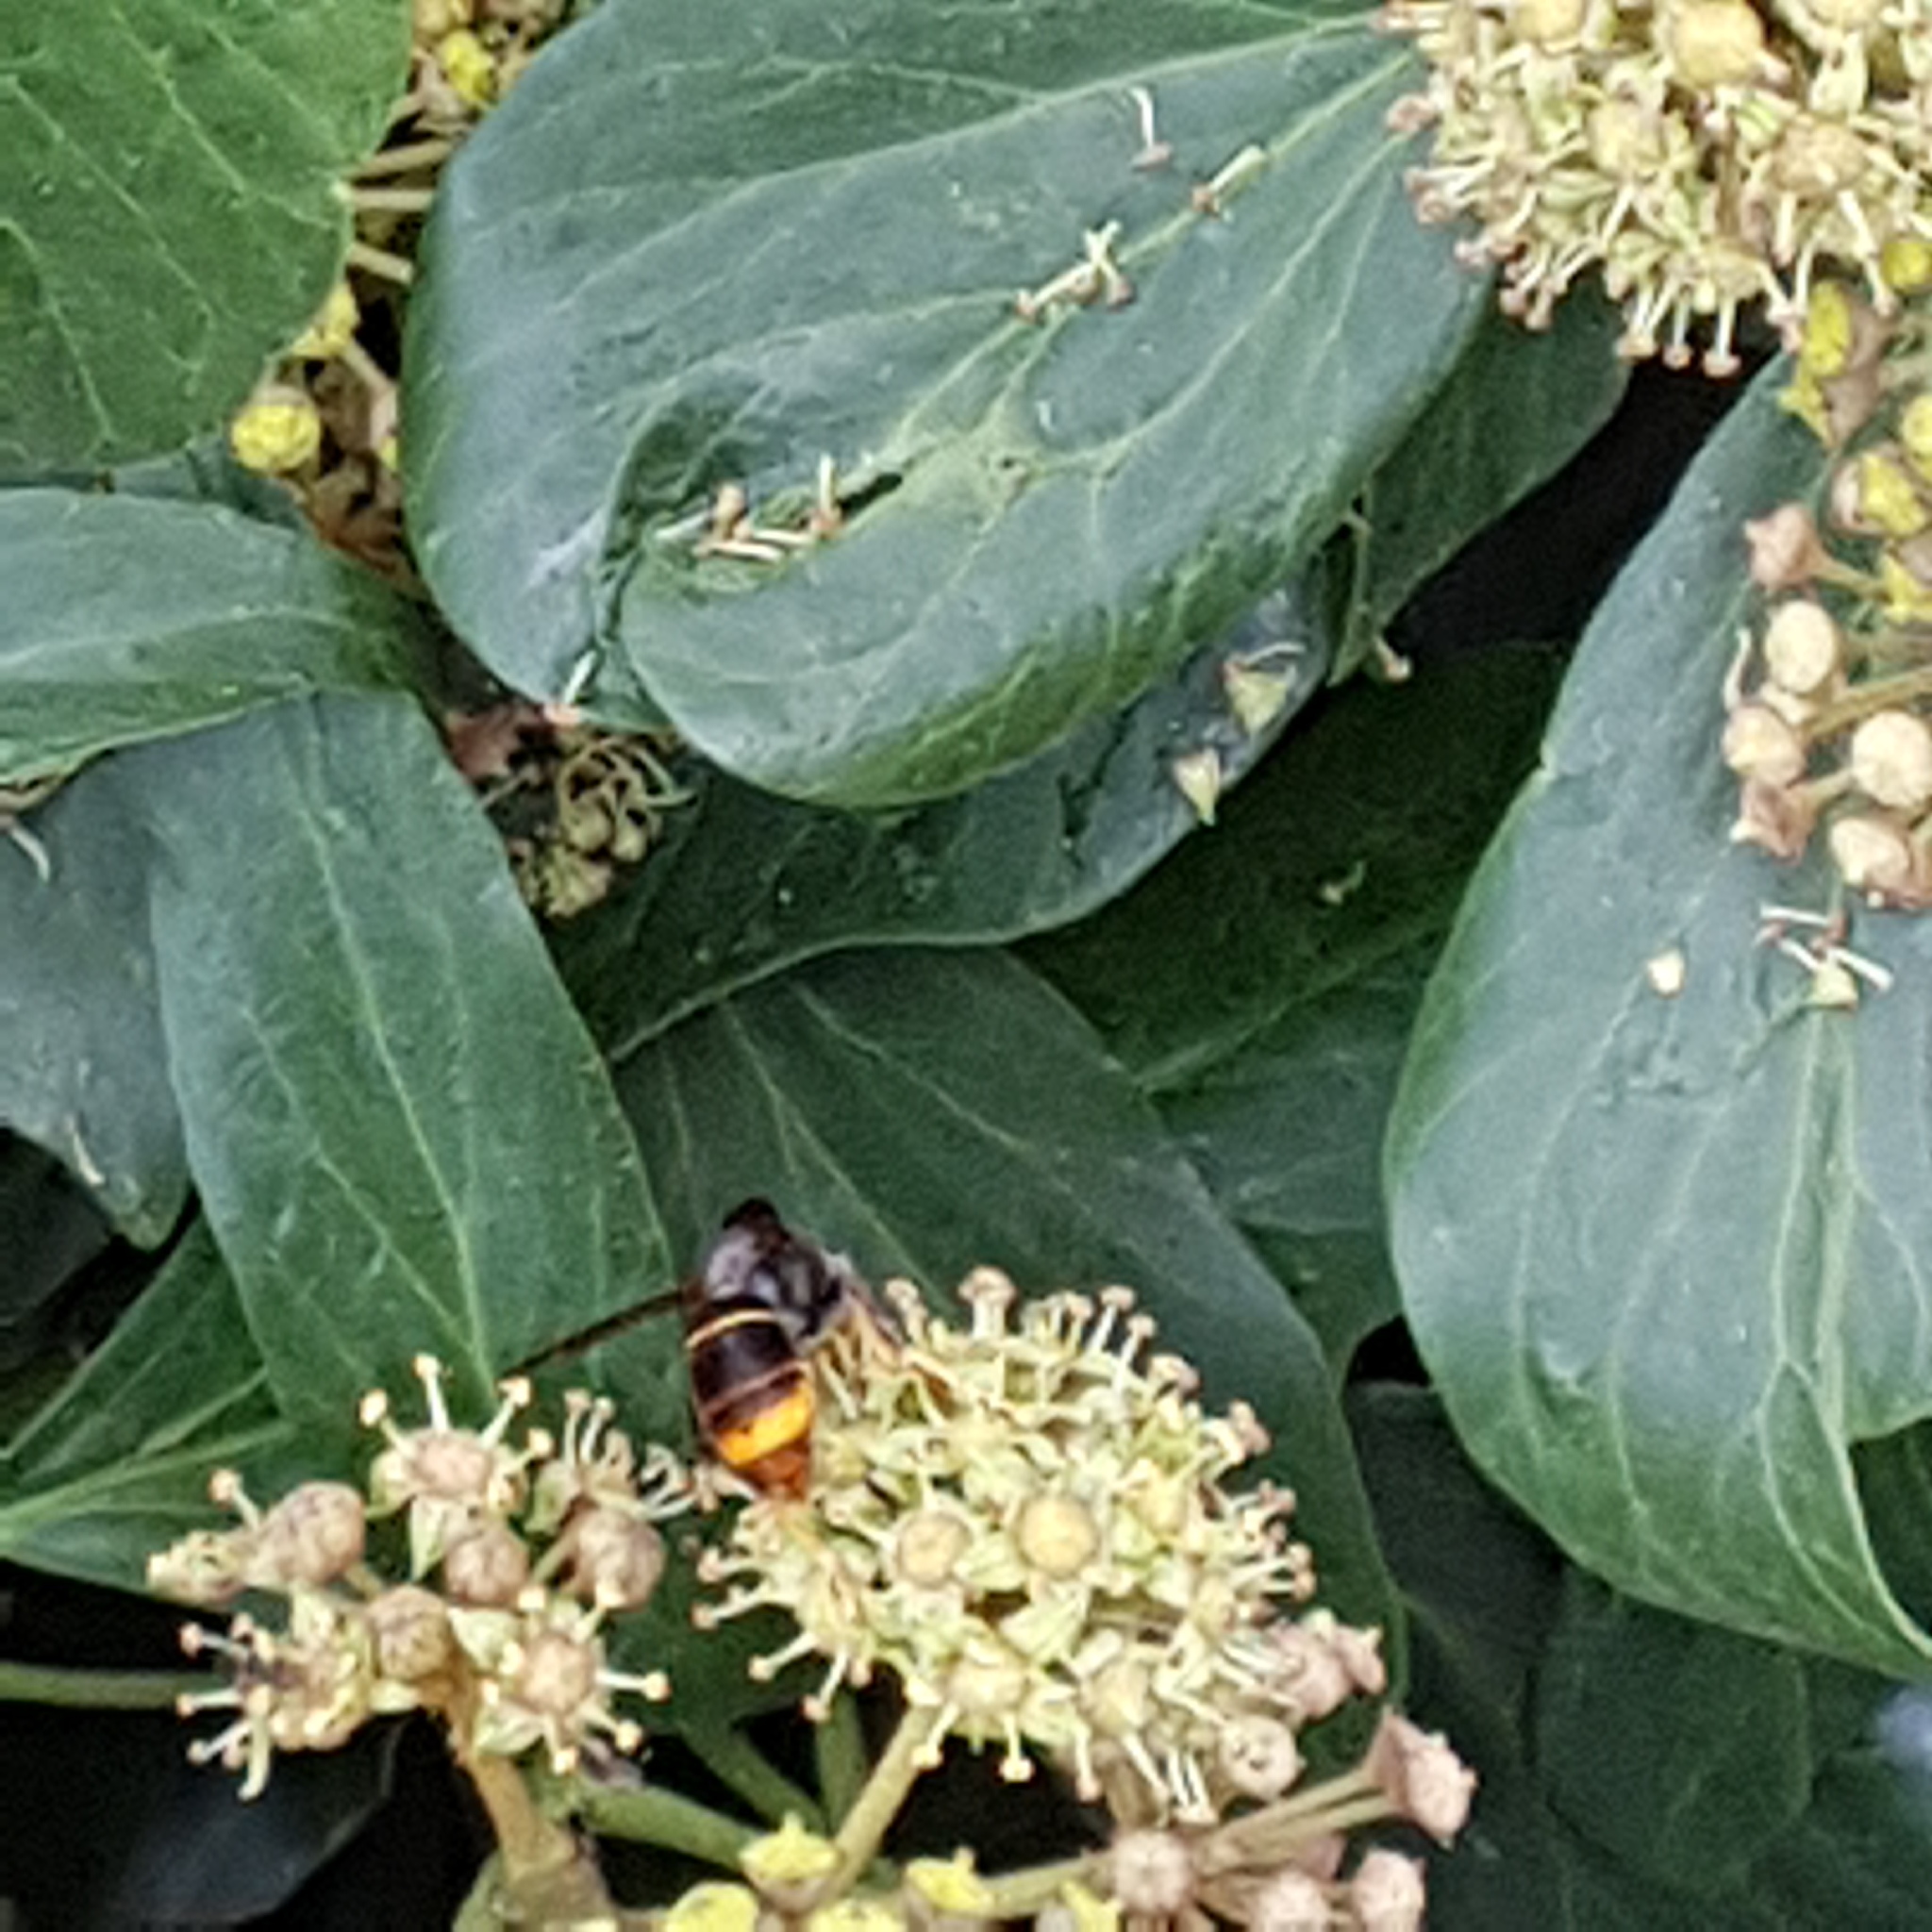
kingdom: Animalia
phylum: Arthropoda
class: Insecta
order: Hymenoptera
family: Vespidae
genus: Vespa
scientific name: Vespa velutina
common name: Asian hornet
